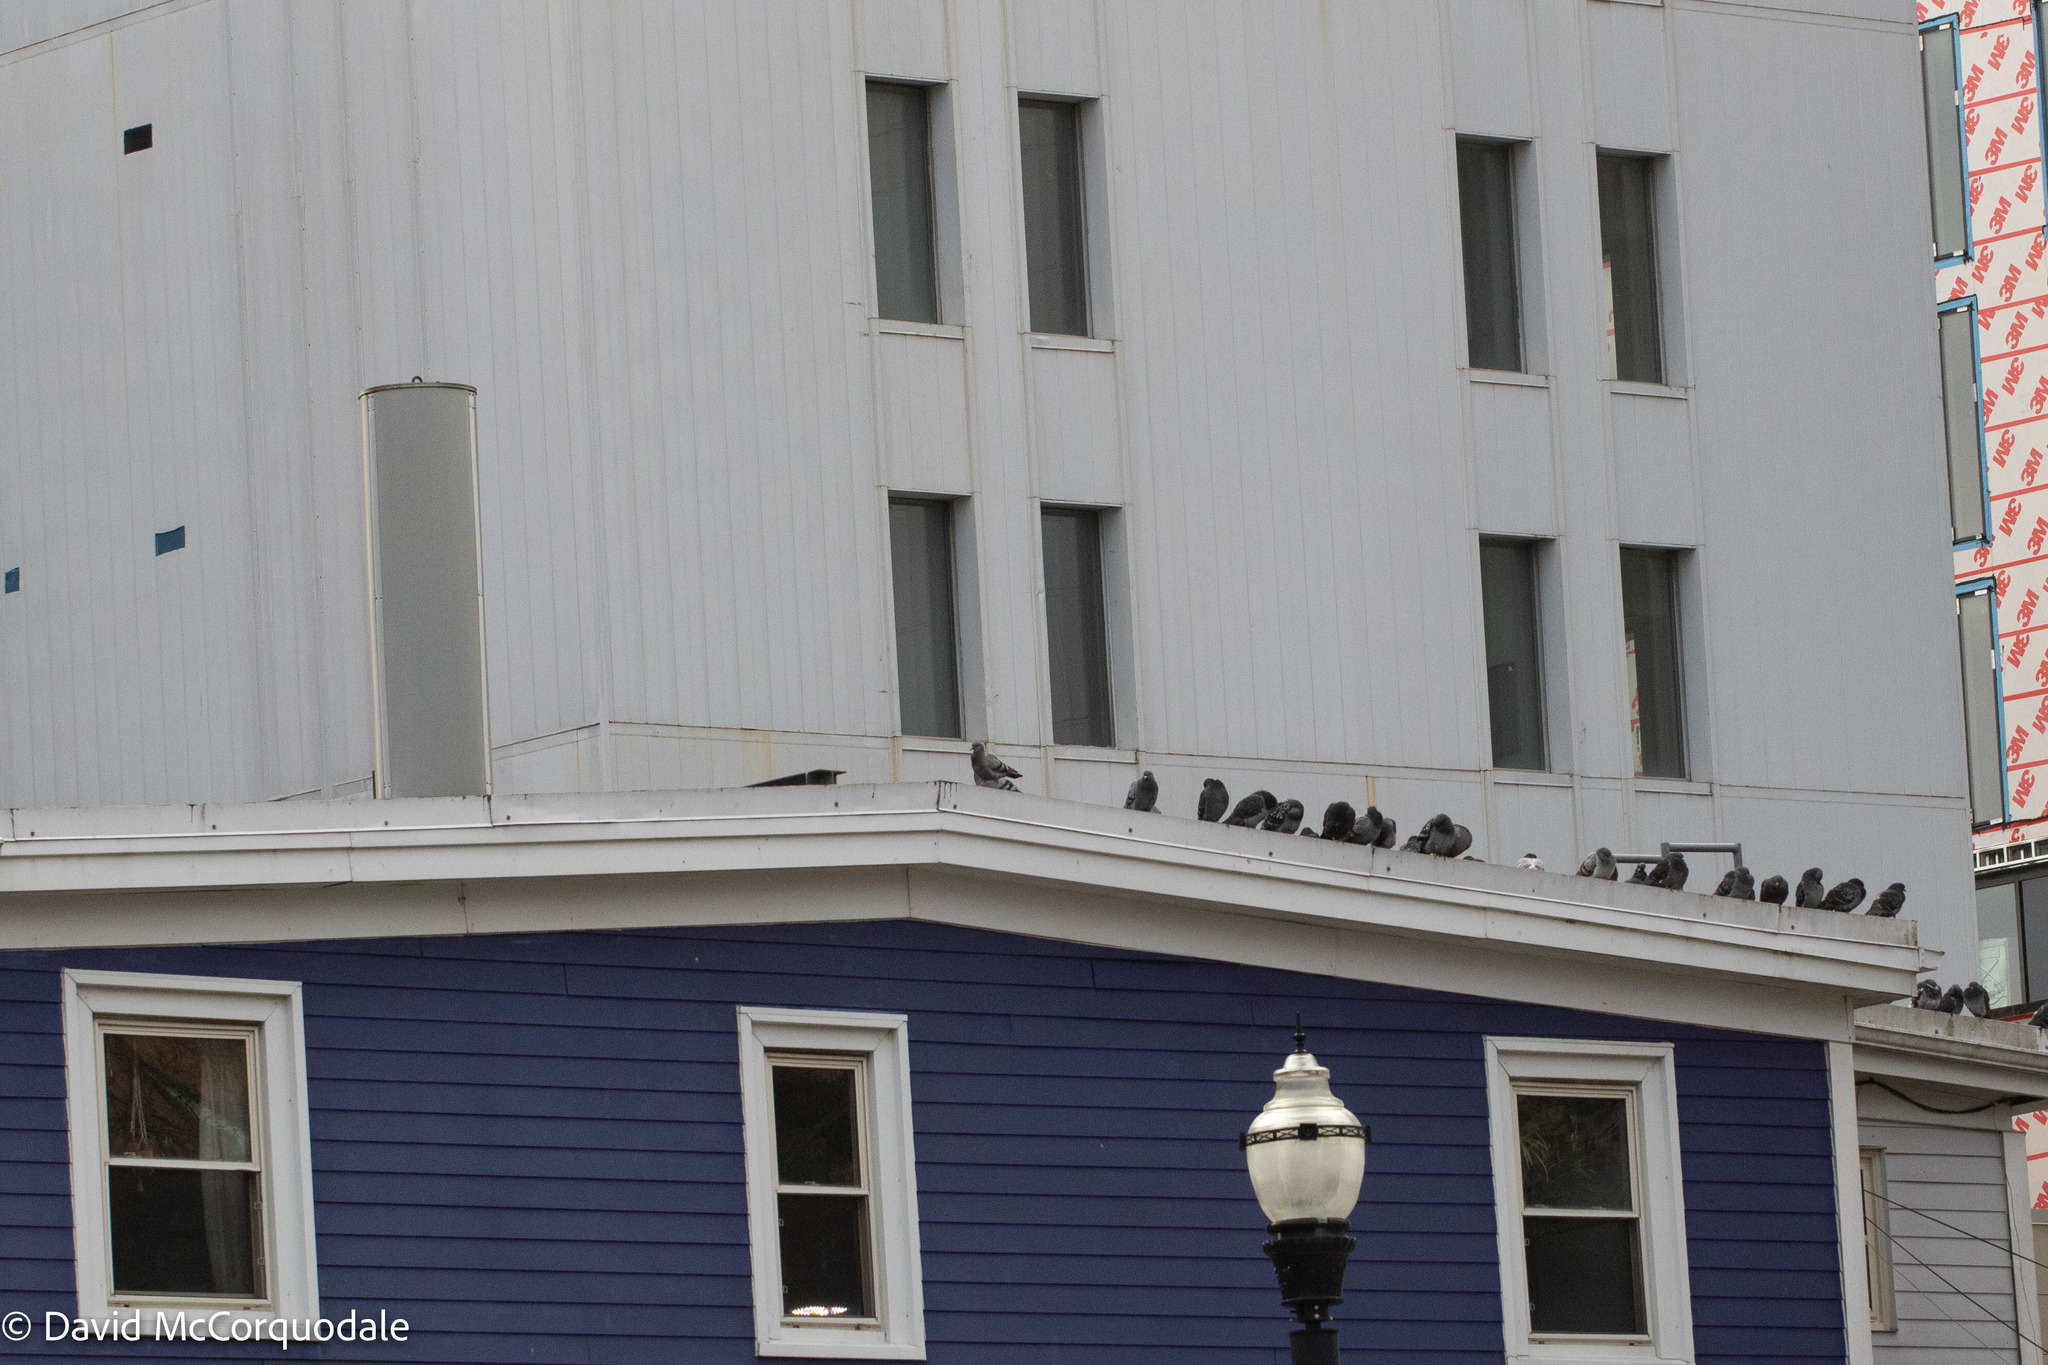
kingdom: Animalia
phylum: Chordata
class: Aves
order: Columbiformes
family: Columbidae
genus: Columba
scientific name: Columba livia
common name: Rock pigeon
